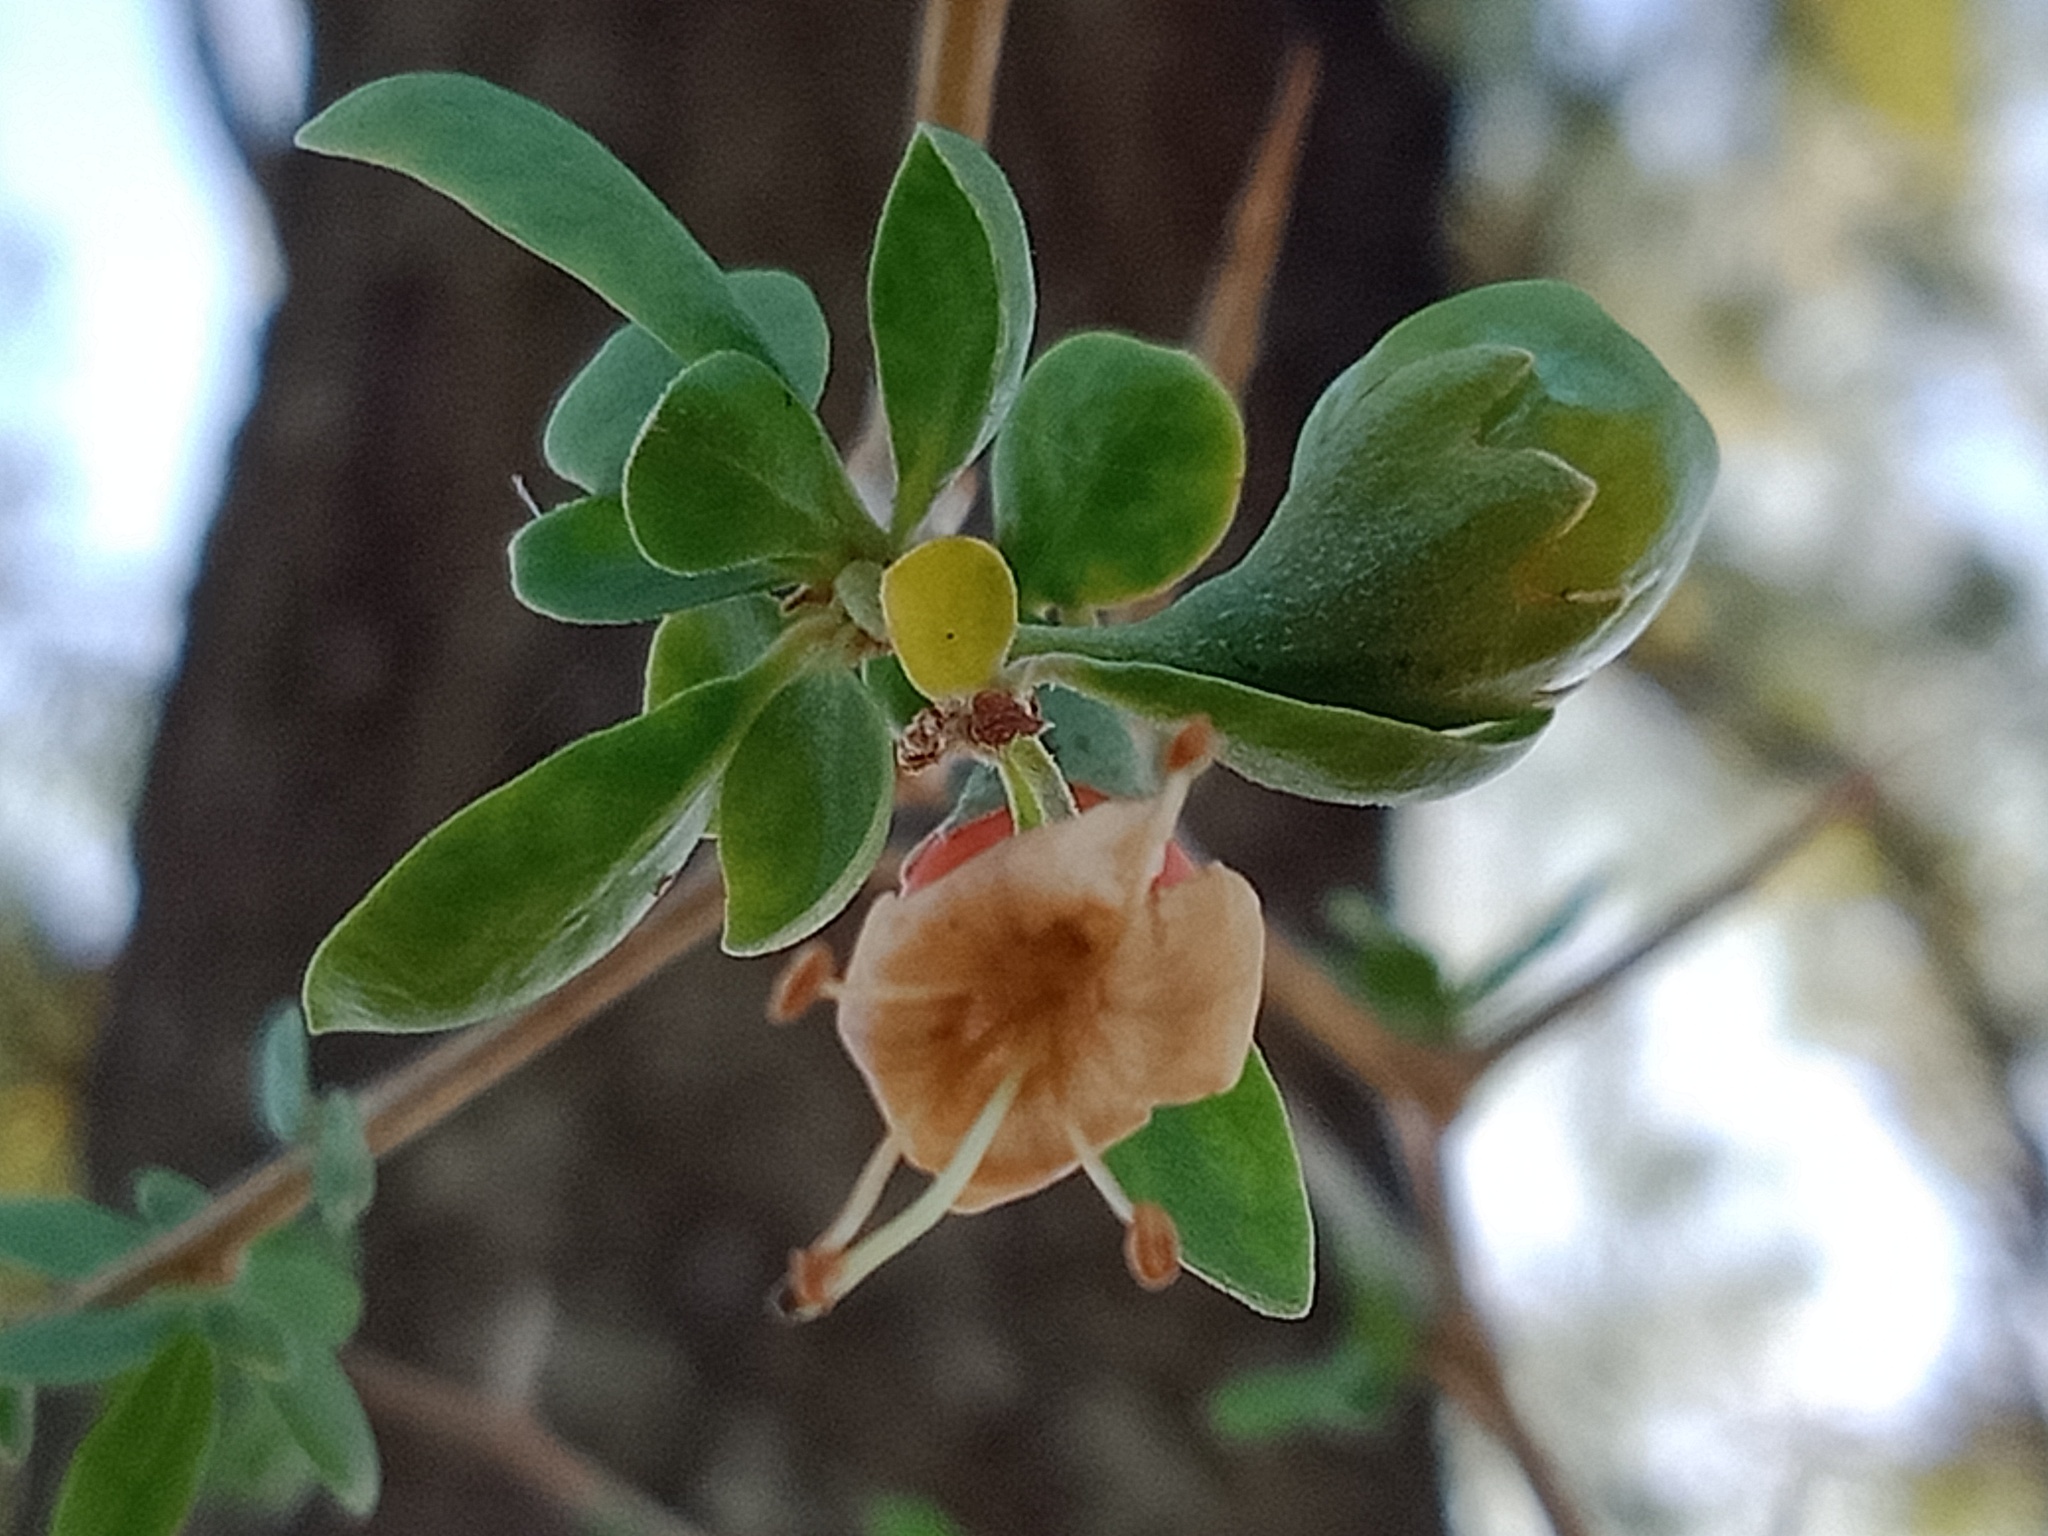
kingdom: Plantae
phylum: Tracheophyta
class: Magnoliopsida
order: Solanales
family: Solanaceae
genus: Lycium
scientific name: Lycium ferocissimum
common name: African boxthorn
